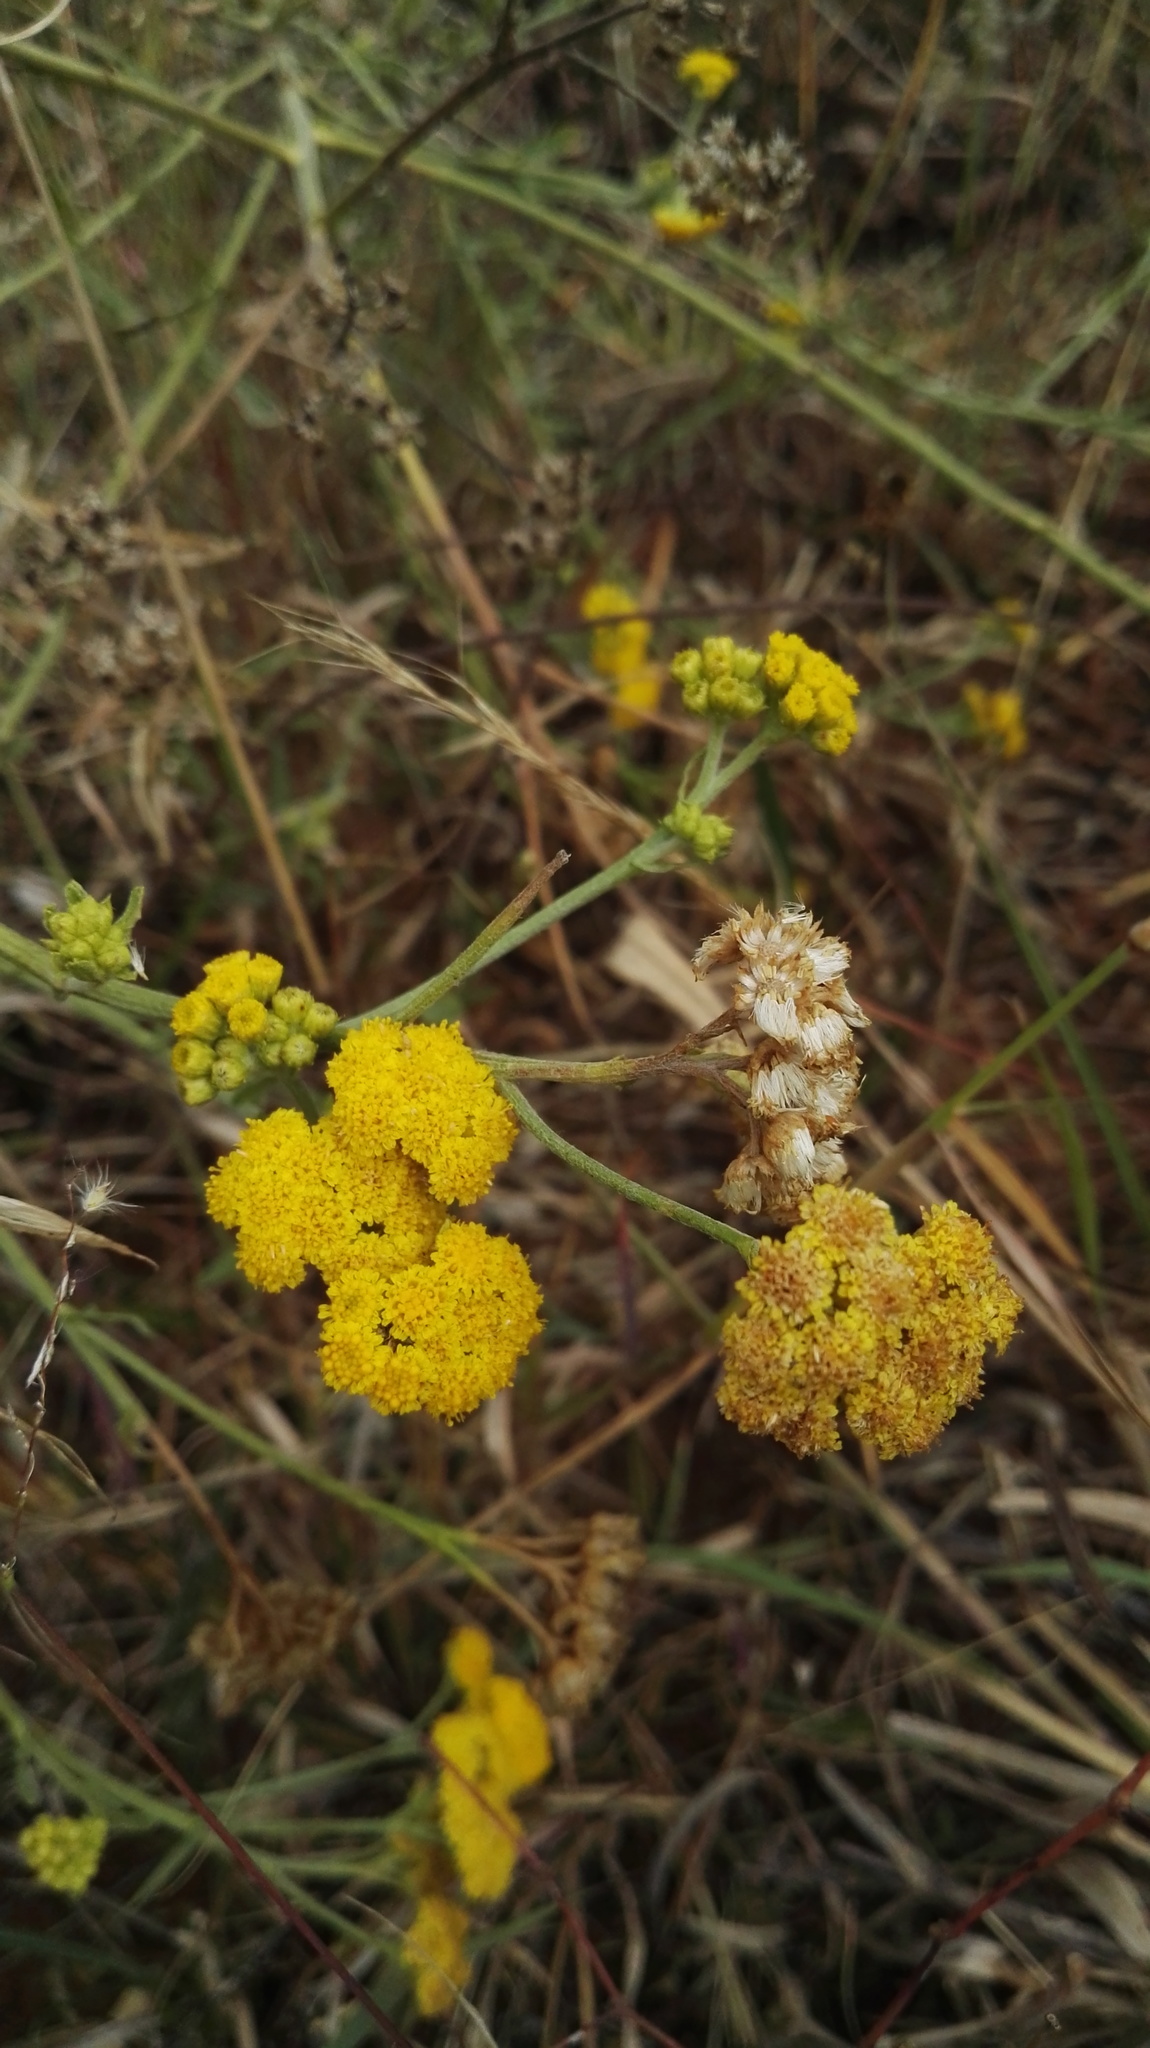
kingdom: Plantae
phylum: Tracheophyta
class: Magnoliopsida
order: Asterales
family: Asteraceae
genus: Nidorella
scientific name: Nidorella hottentotica
